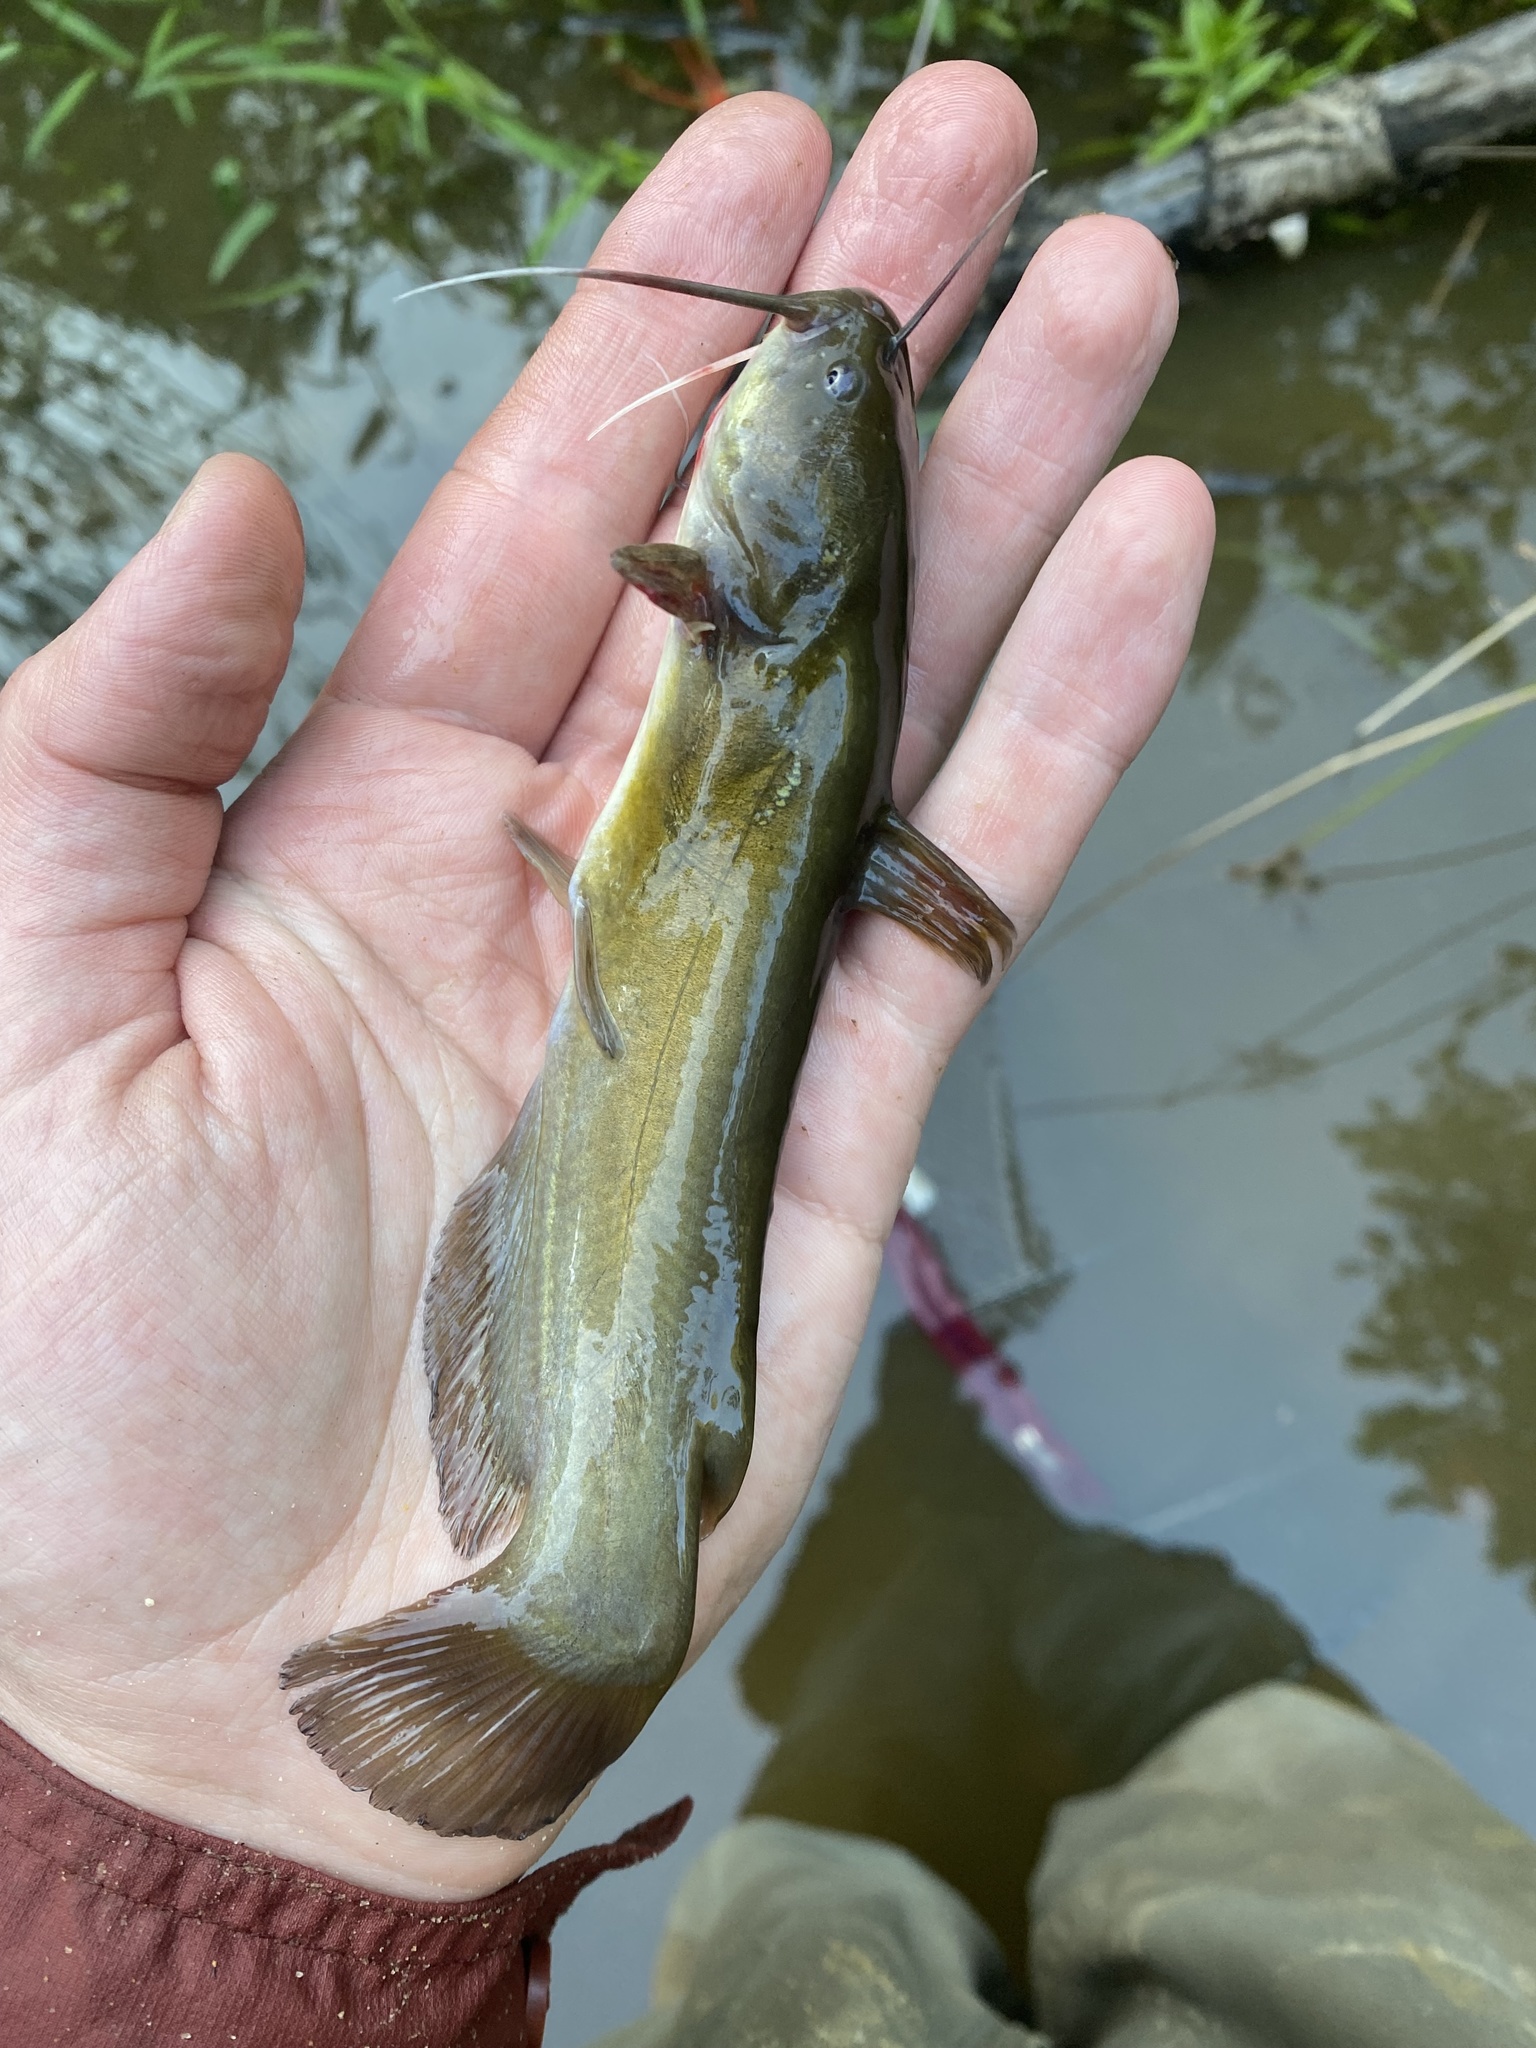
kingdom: Animalia
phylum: Chordata
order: Siluriformes
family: Ictaluridae
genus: Ameiurus
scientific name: Ameiurus natalis
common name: Yellow bullhead
